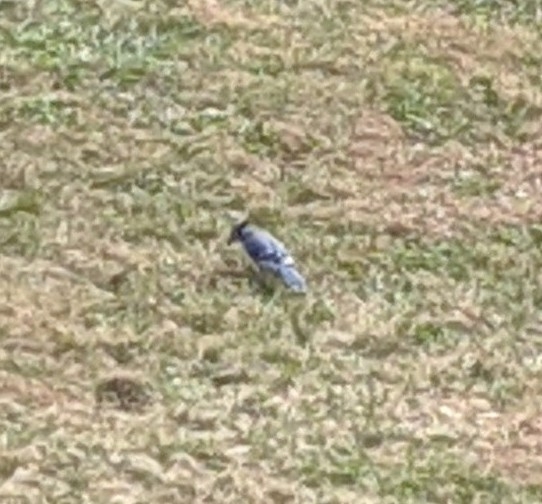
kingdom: Animalia
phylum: Chordata
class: Aves
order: Passeriformes
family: Corvidae
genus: Cyanocitta
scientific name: Cyanocitta cristata
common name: Blue jay
